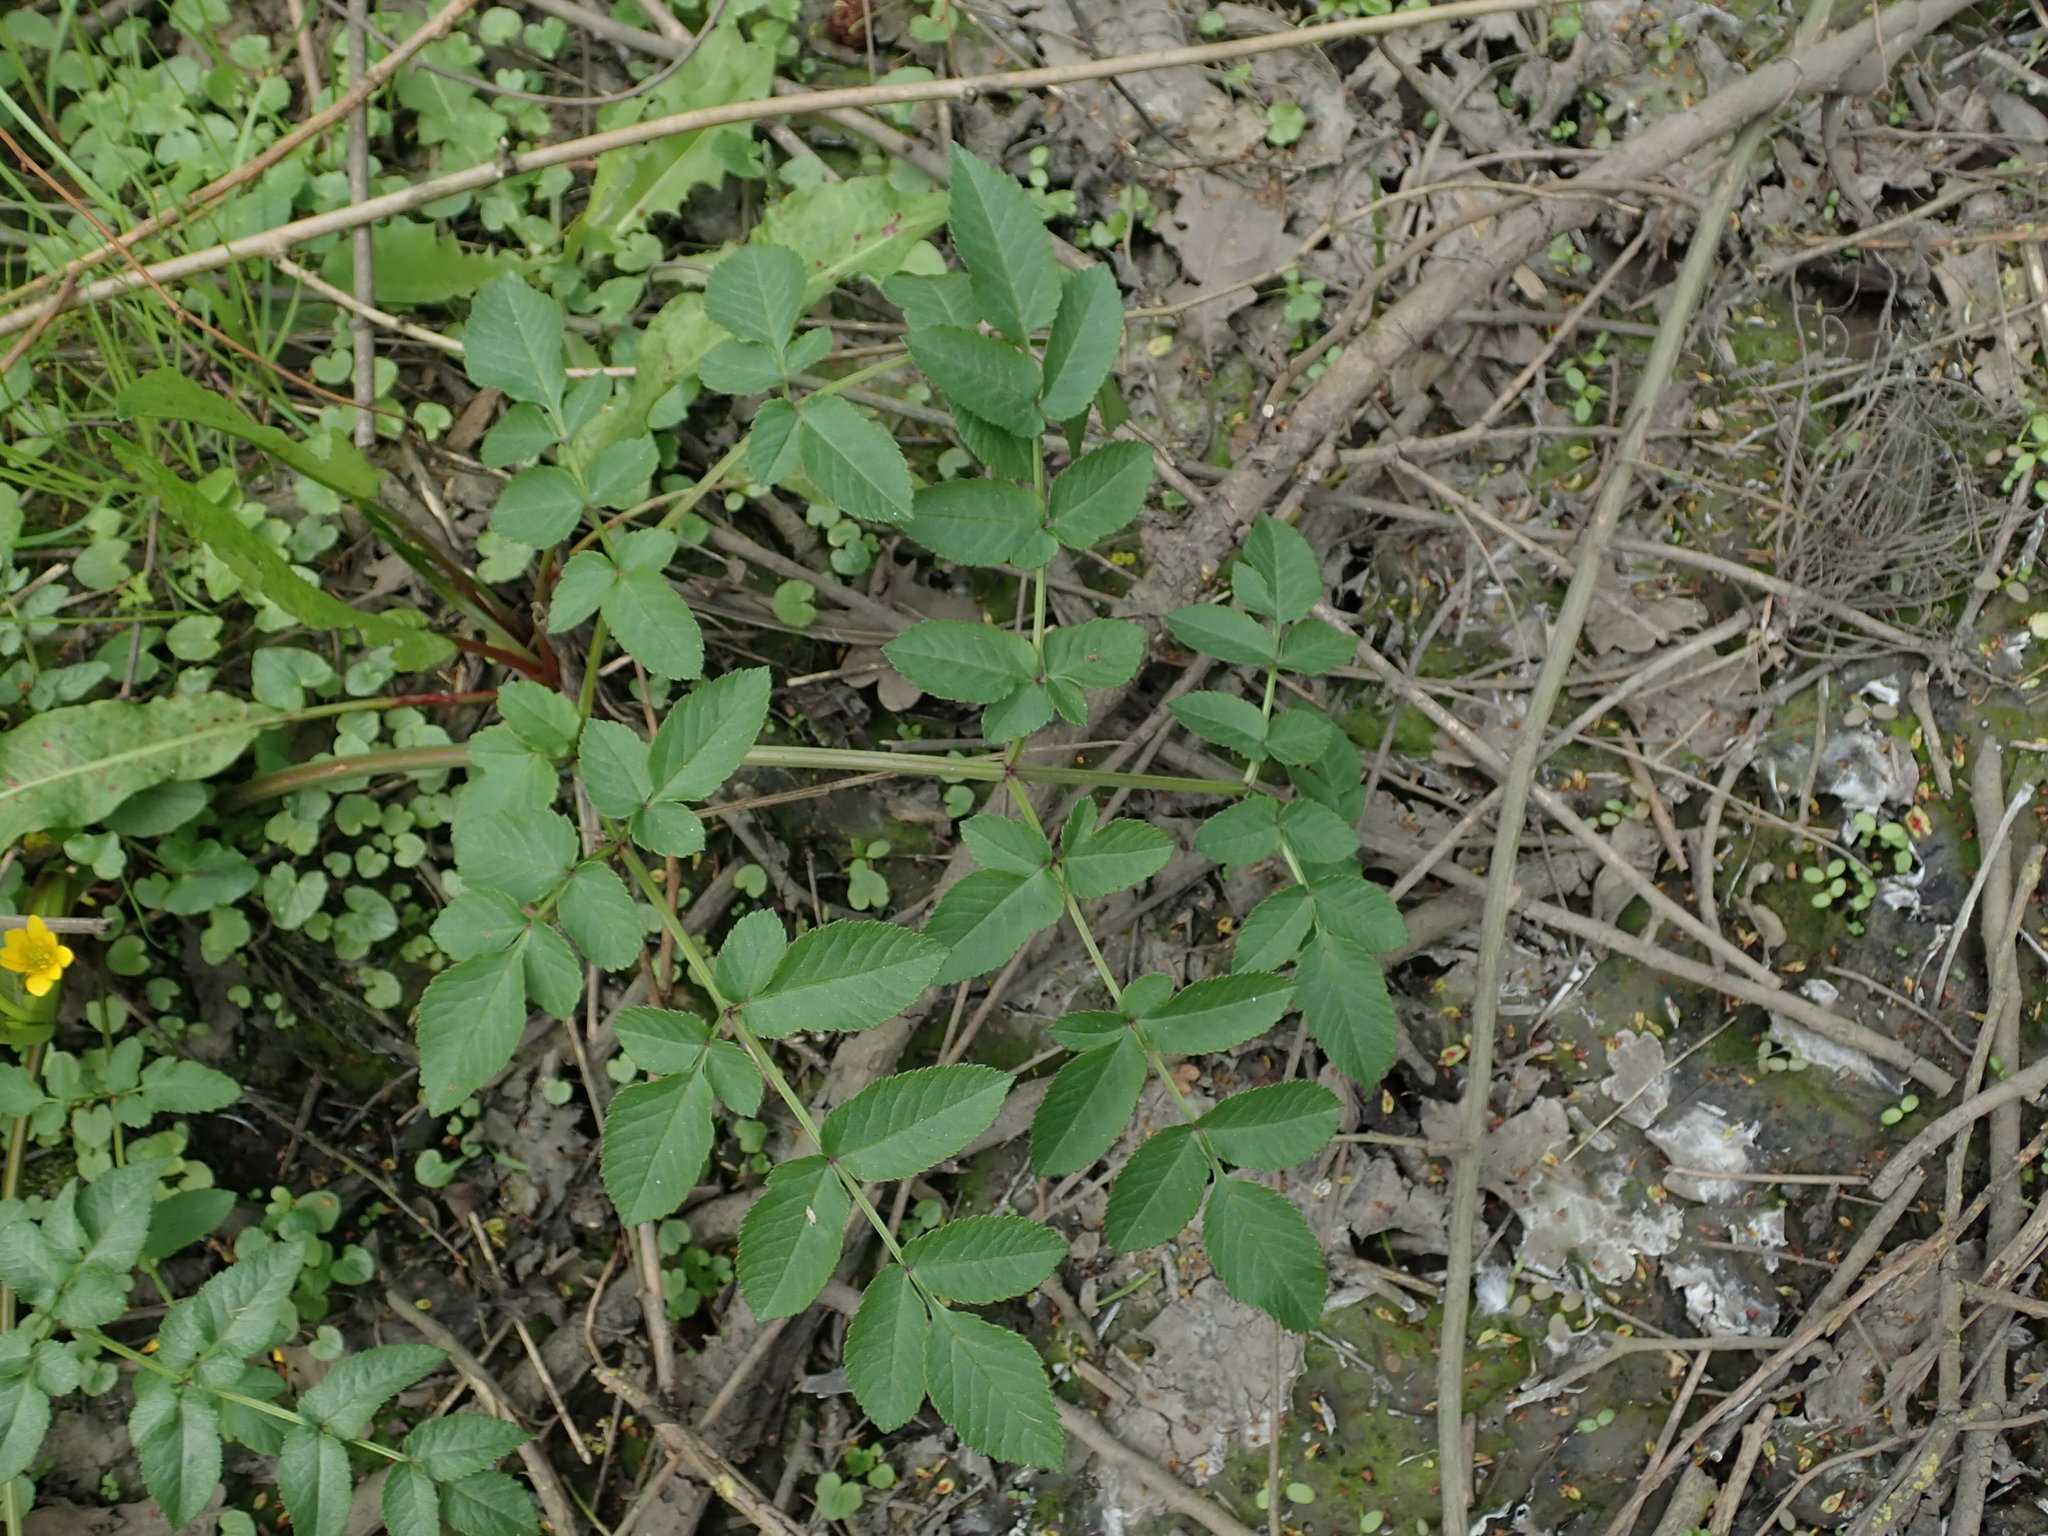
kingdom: Plantae
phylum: Tracheophyta
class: Magnoliopsida
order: Apiales
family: Apiaceae
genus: Angelica
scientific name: Angelica sylvestris
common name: Wild angelica
